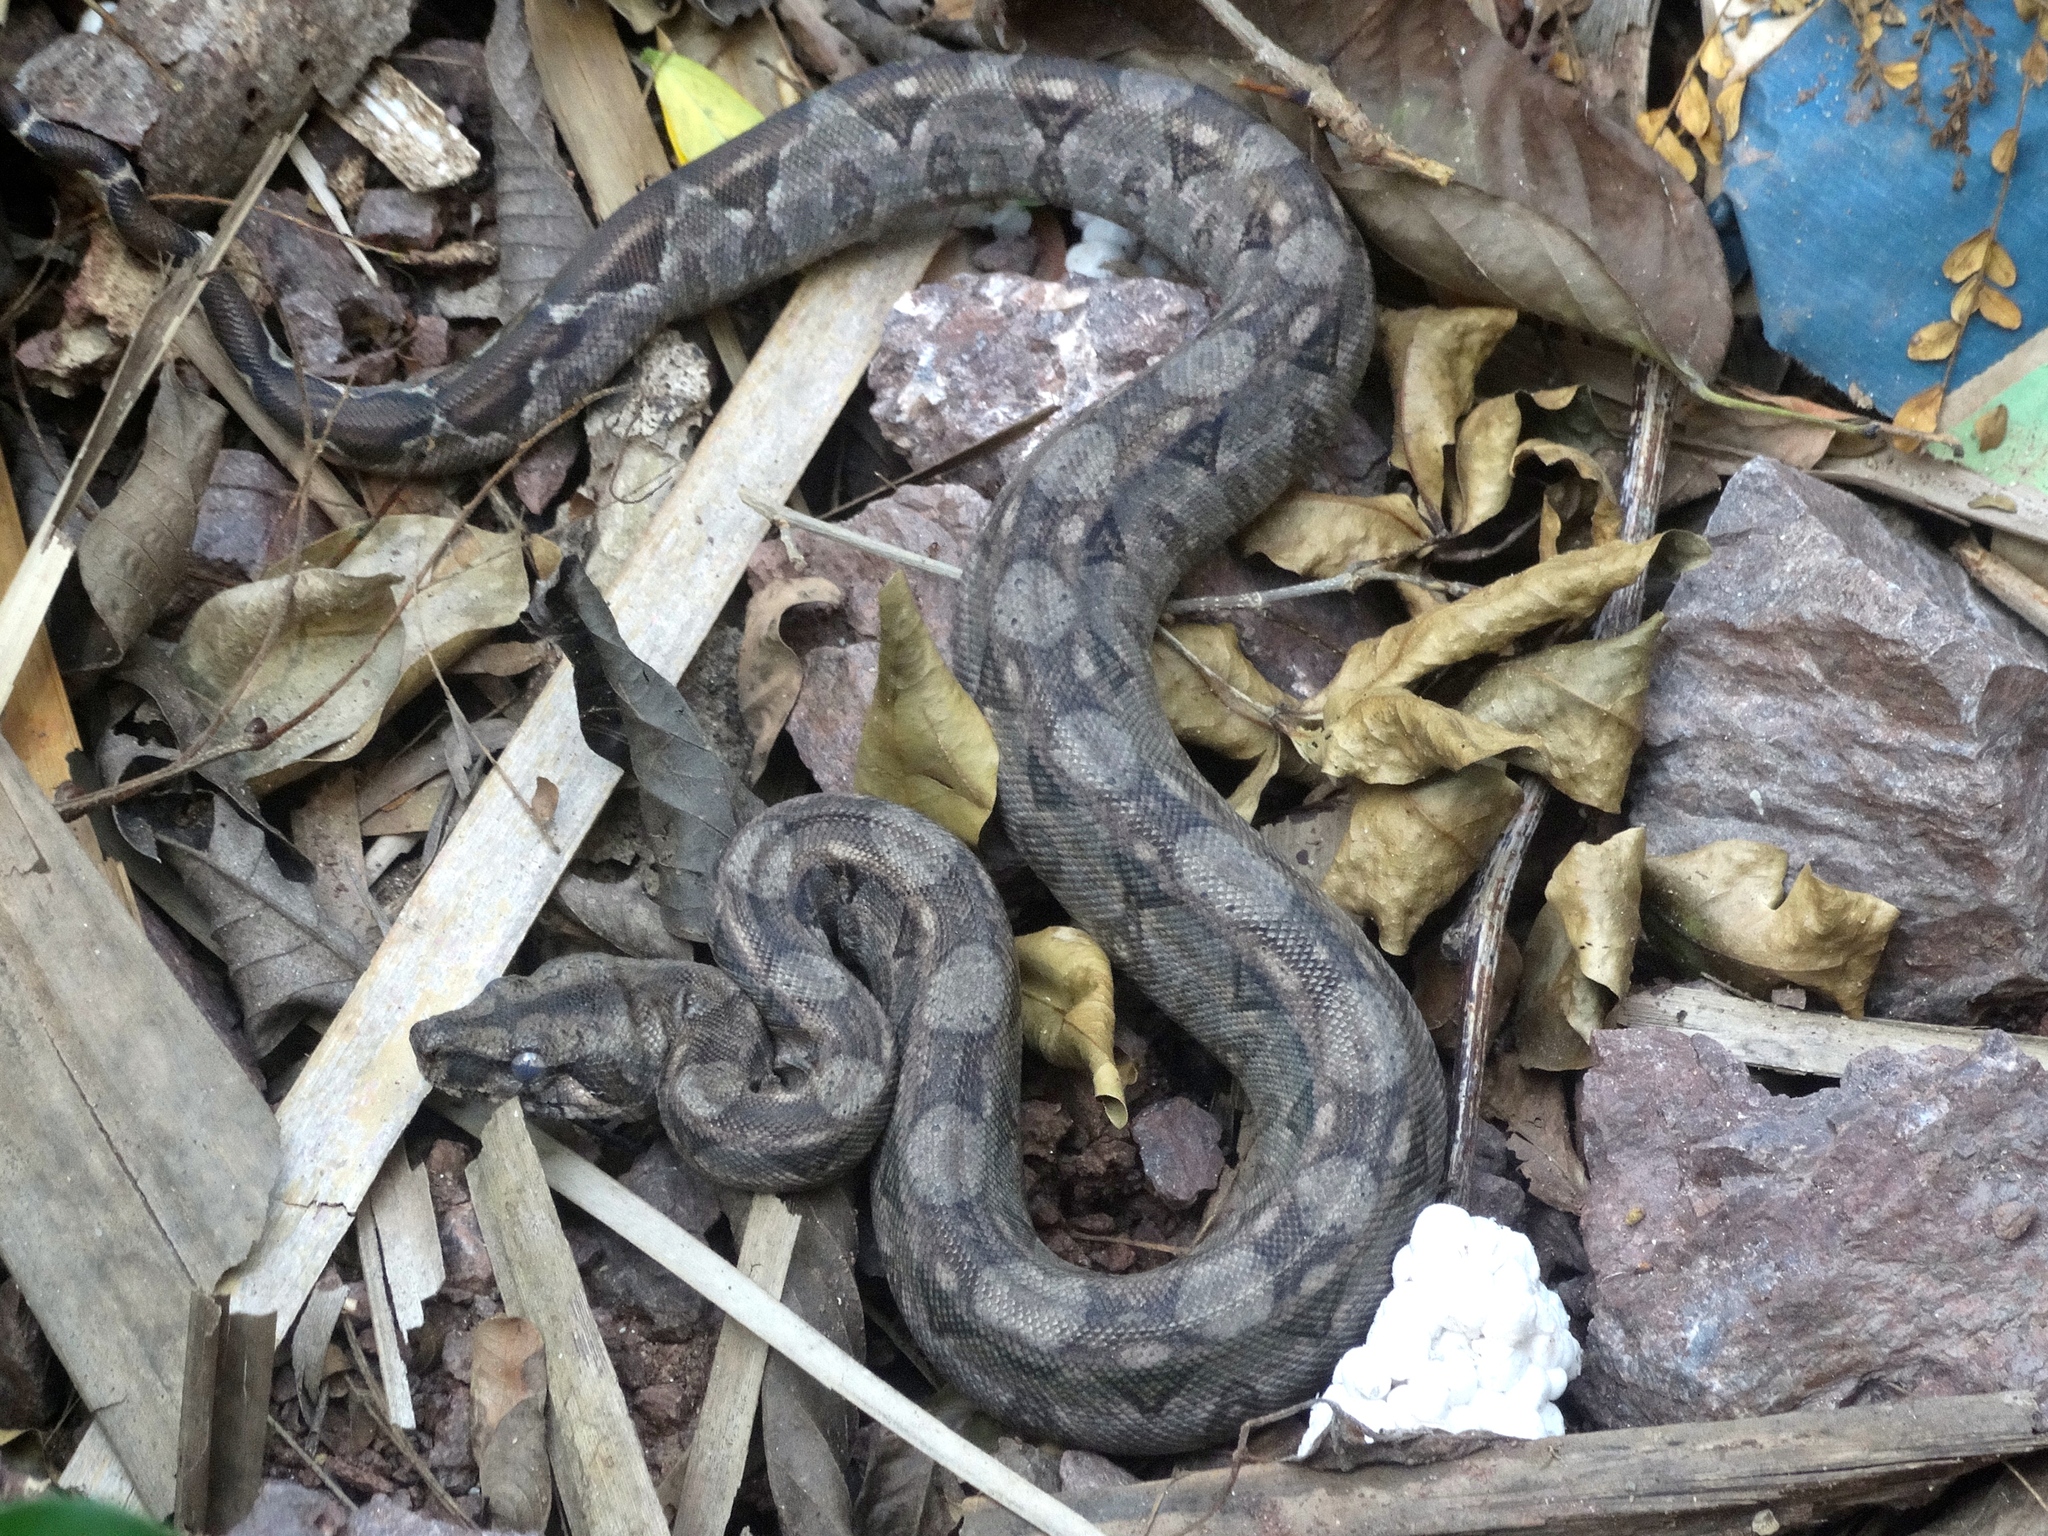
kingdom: Animalia
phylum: Chordata
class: Squamata
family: Boidae
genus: Boa
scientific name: Boa
